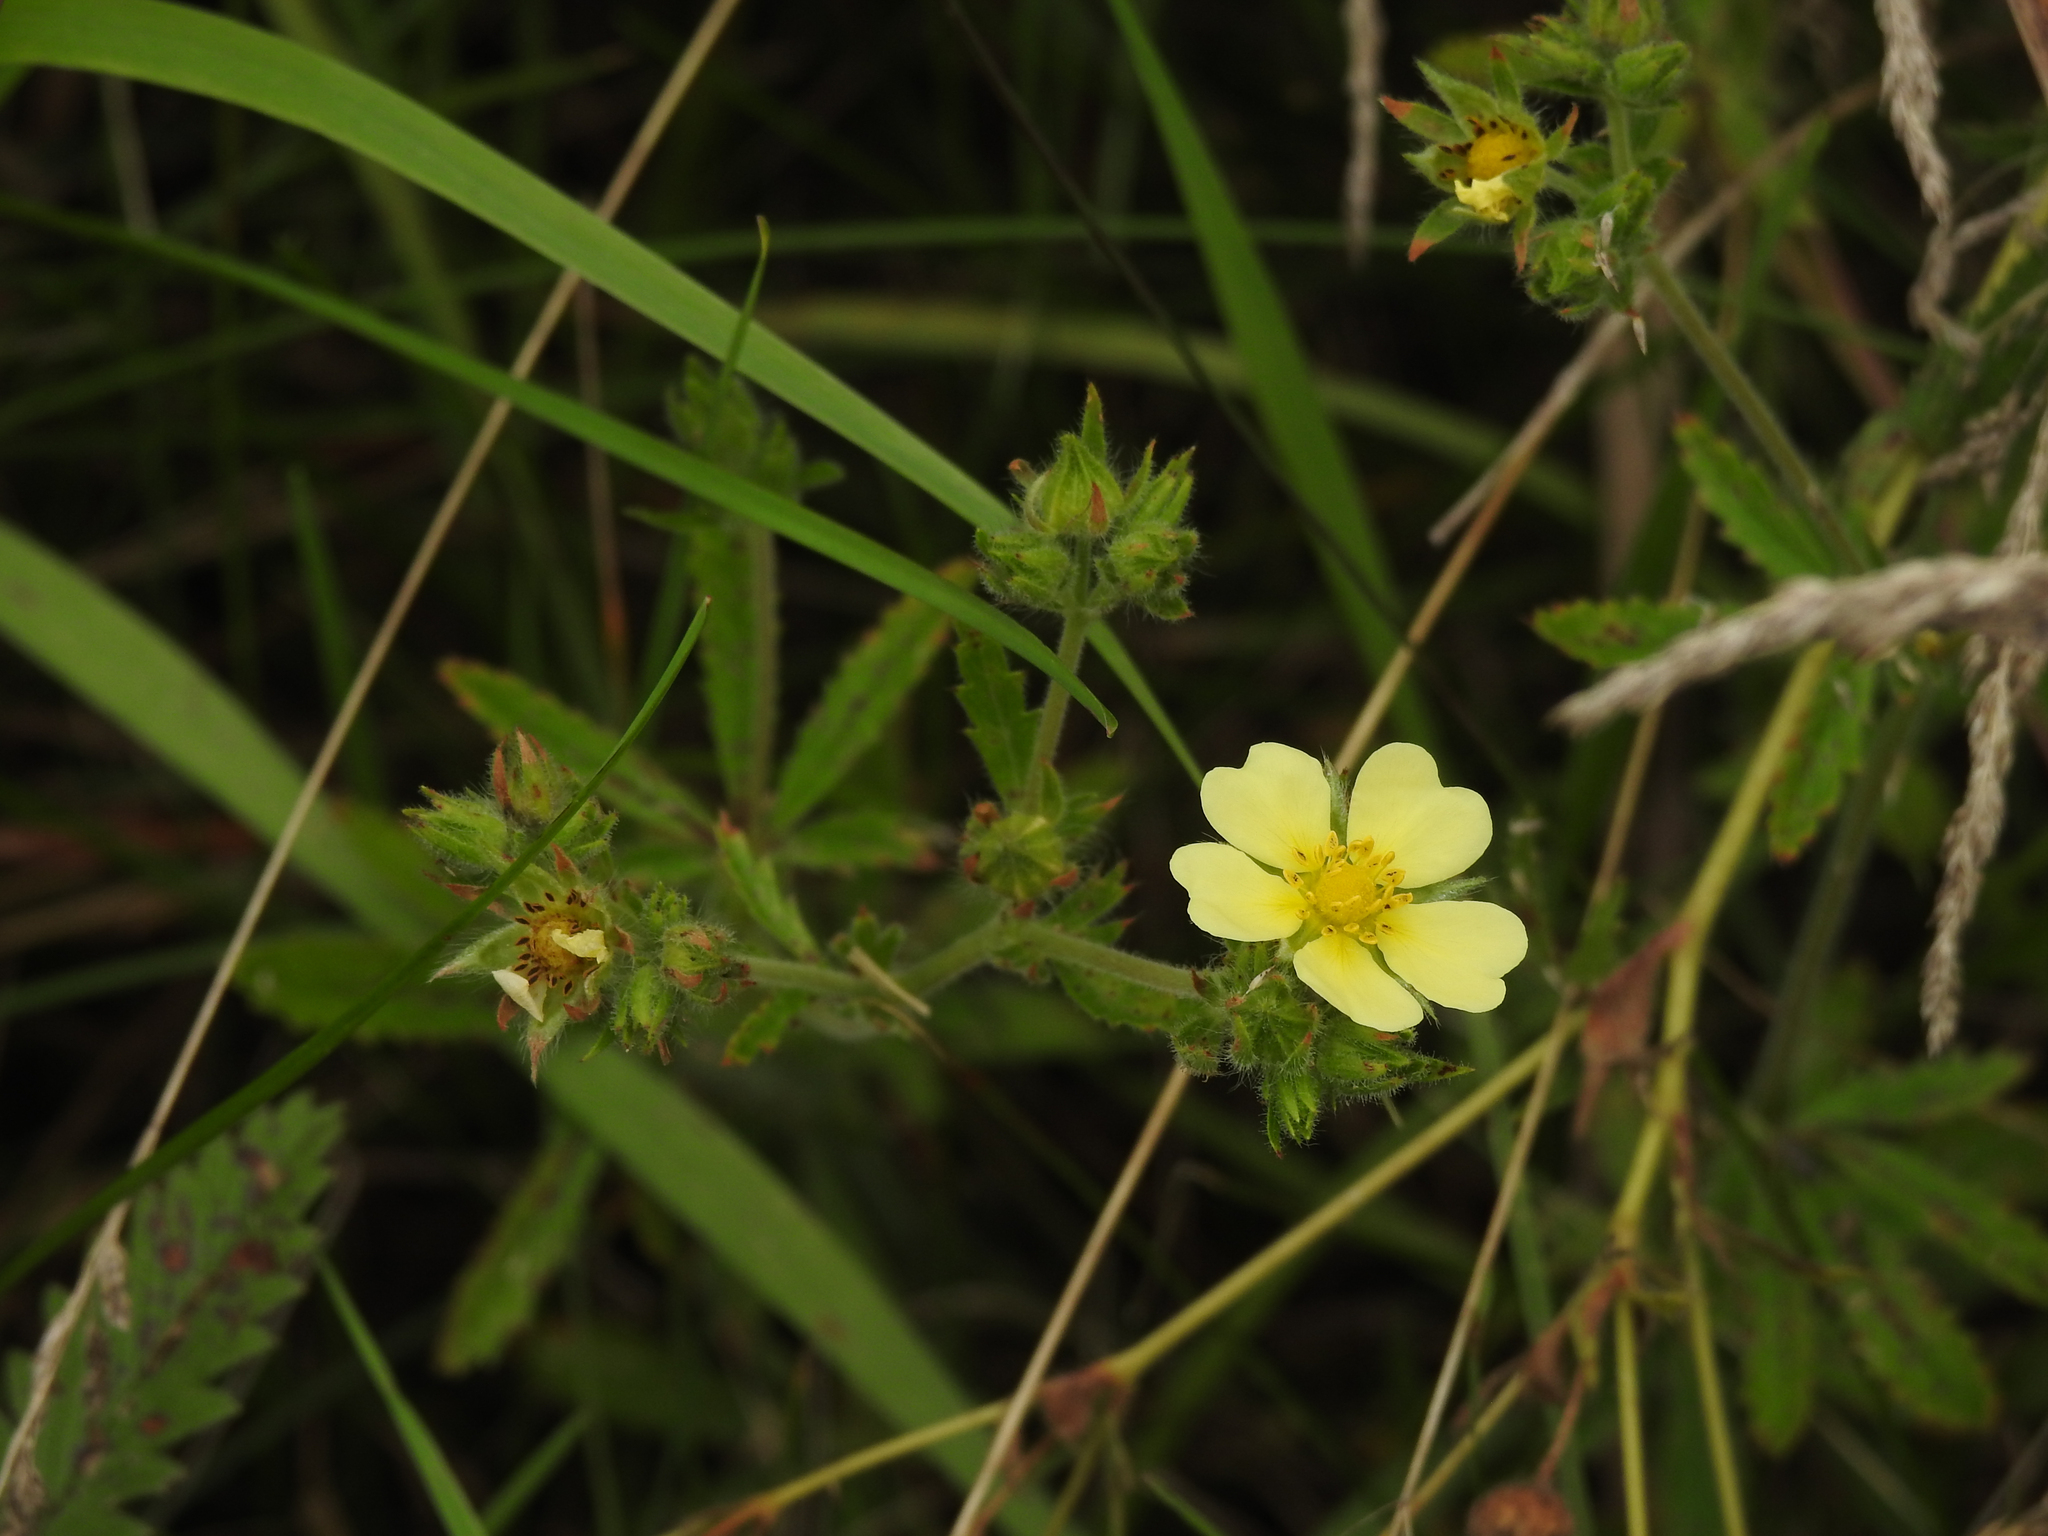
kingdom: Plantae
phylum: Tracheophyta
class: Magnoliopsida
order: Rosales
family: Rosaceae
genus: Potentilla
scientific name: Potentilla recta
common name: Sulphur cinquefoil
